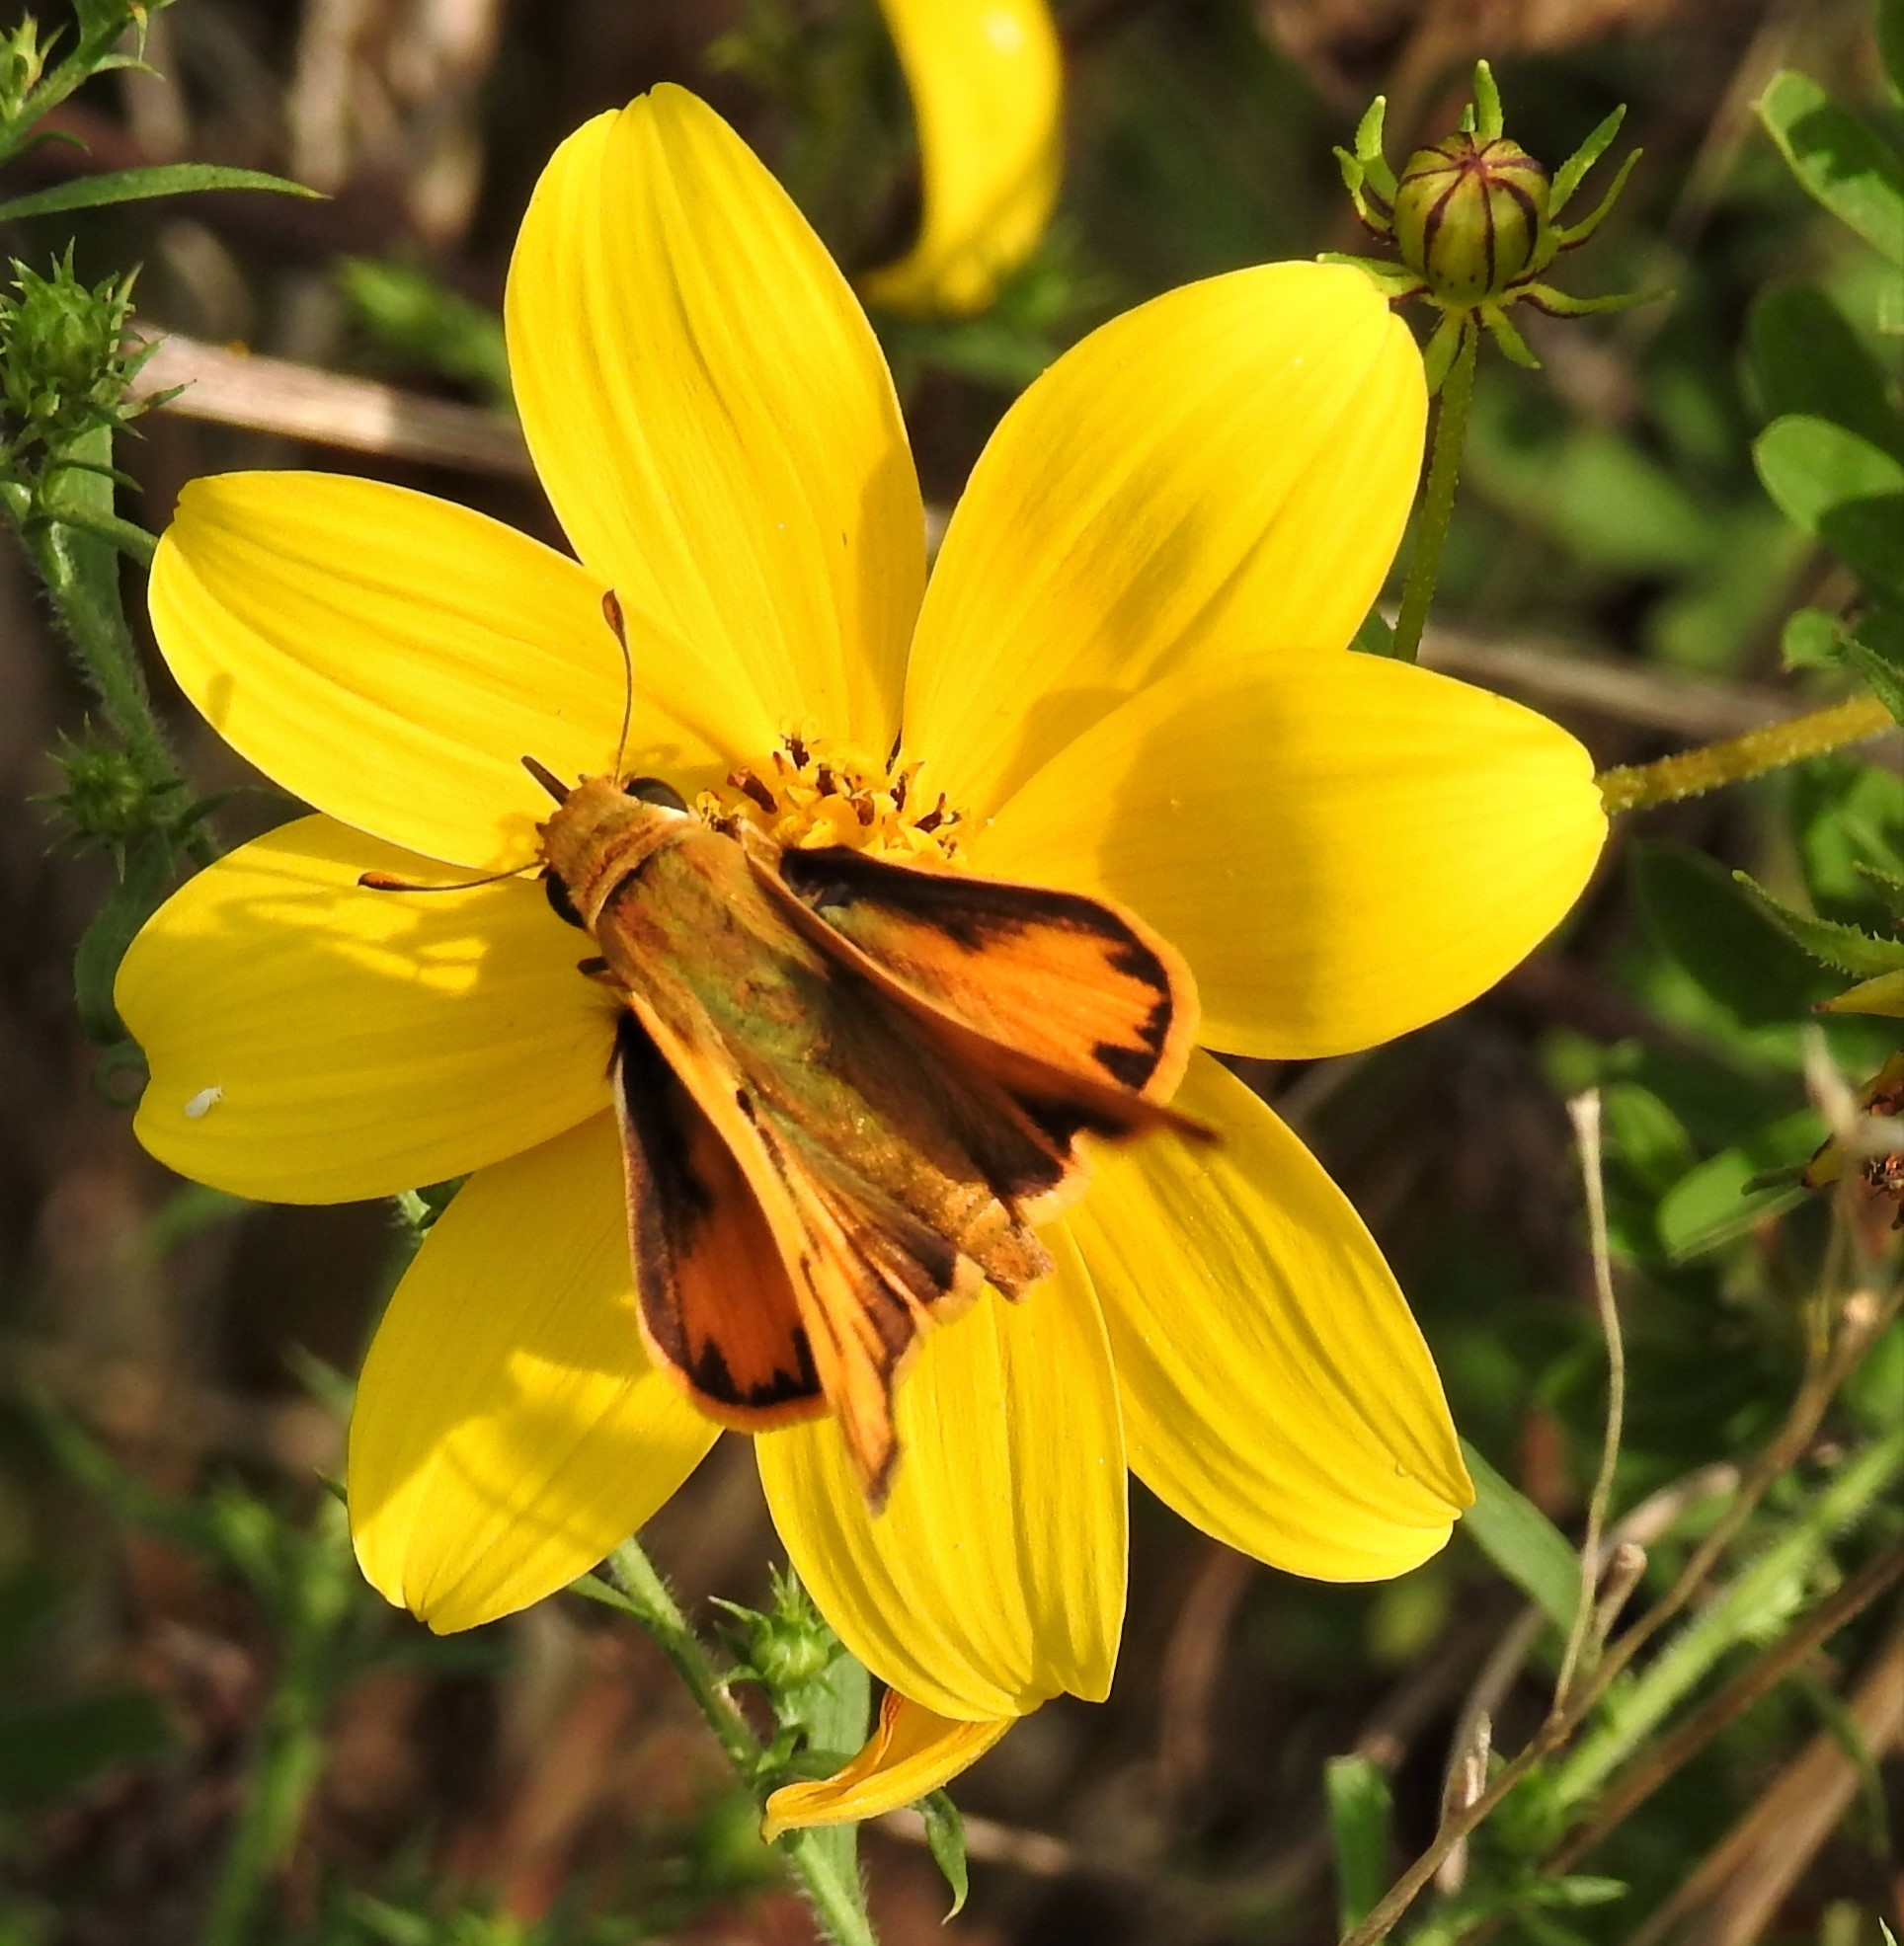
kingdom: Animalia
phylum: Arthropoda
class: Insecta
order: Lepidoptera
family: Hesperiidae
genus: Hylephila
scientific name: Hylephila phyleus
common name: Fiery skipper
